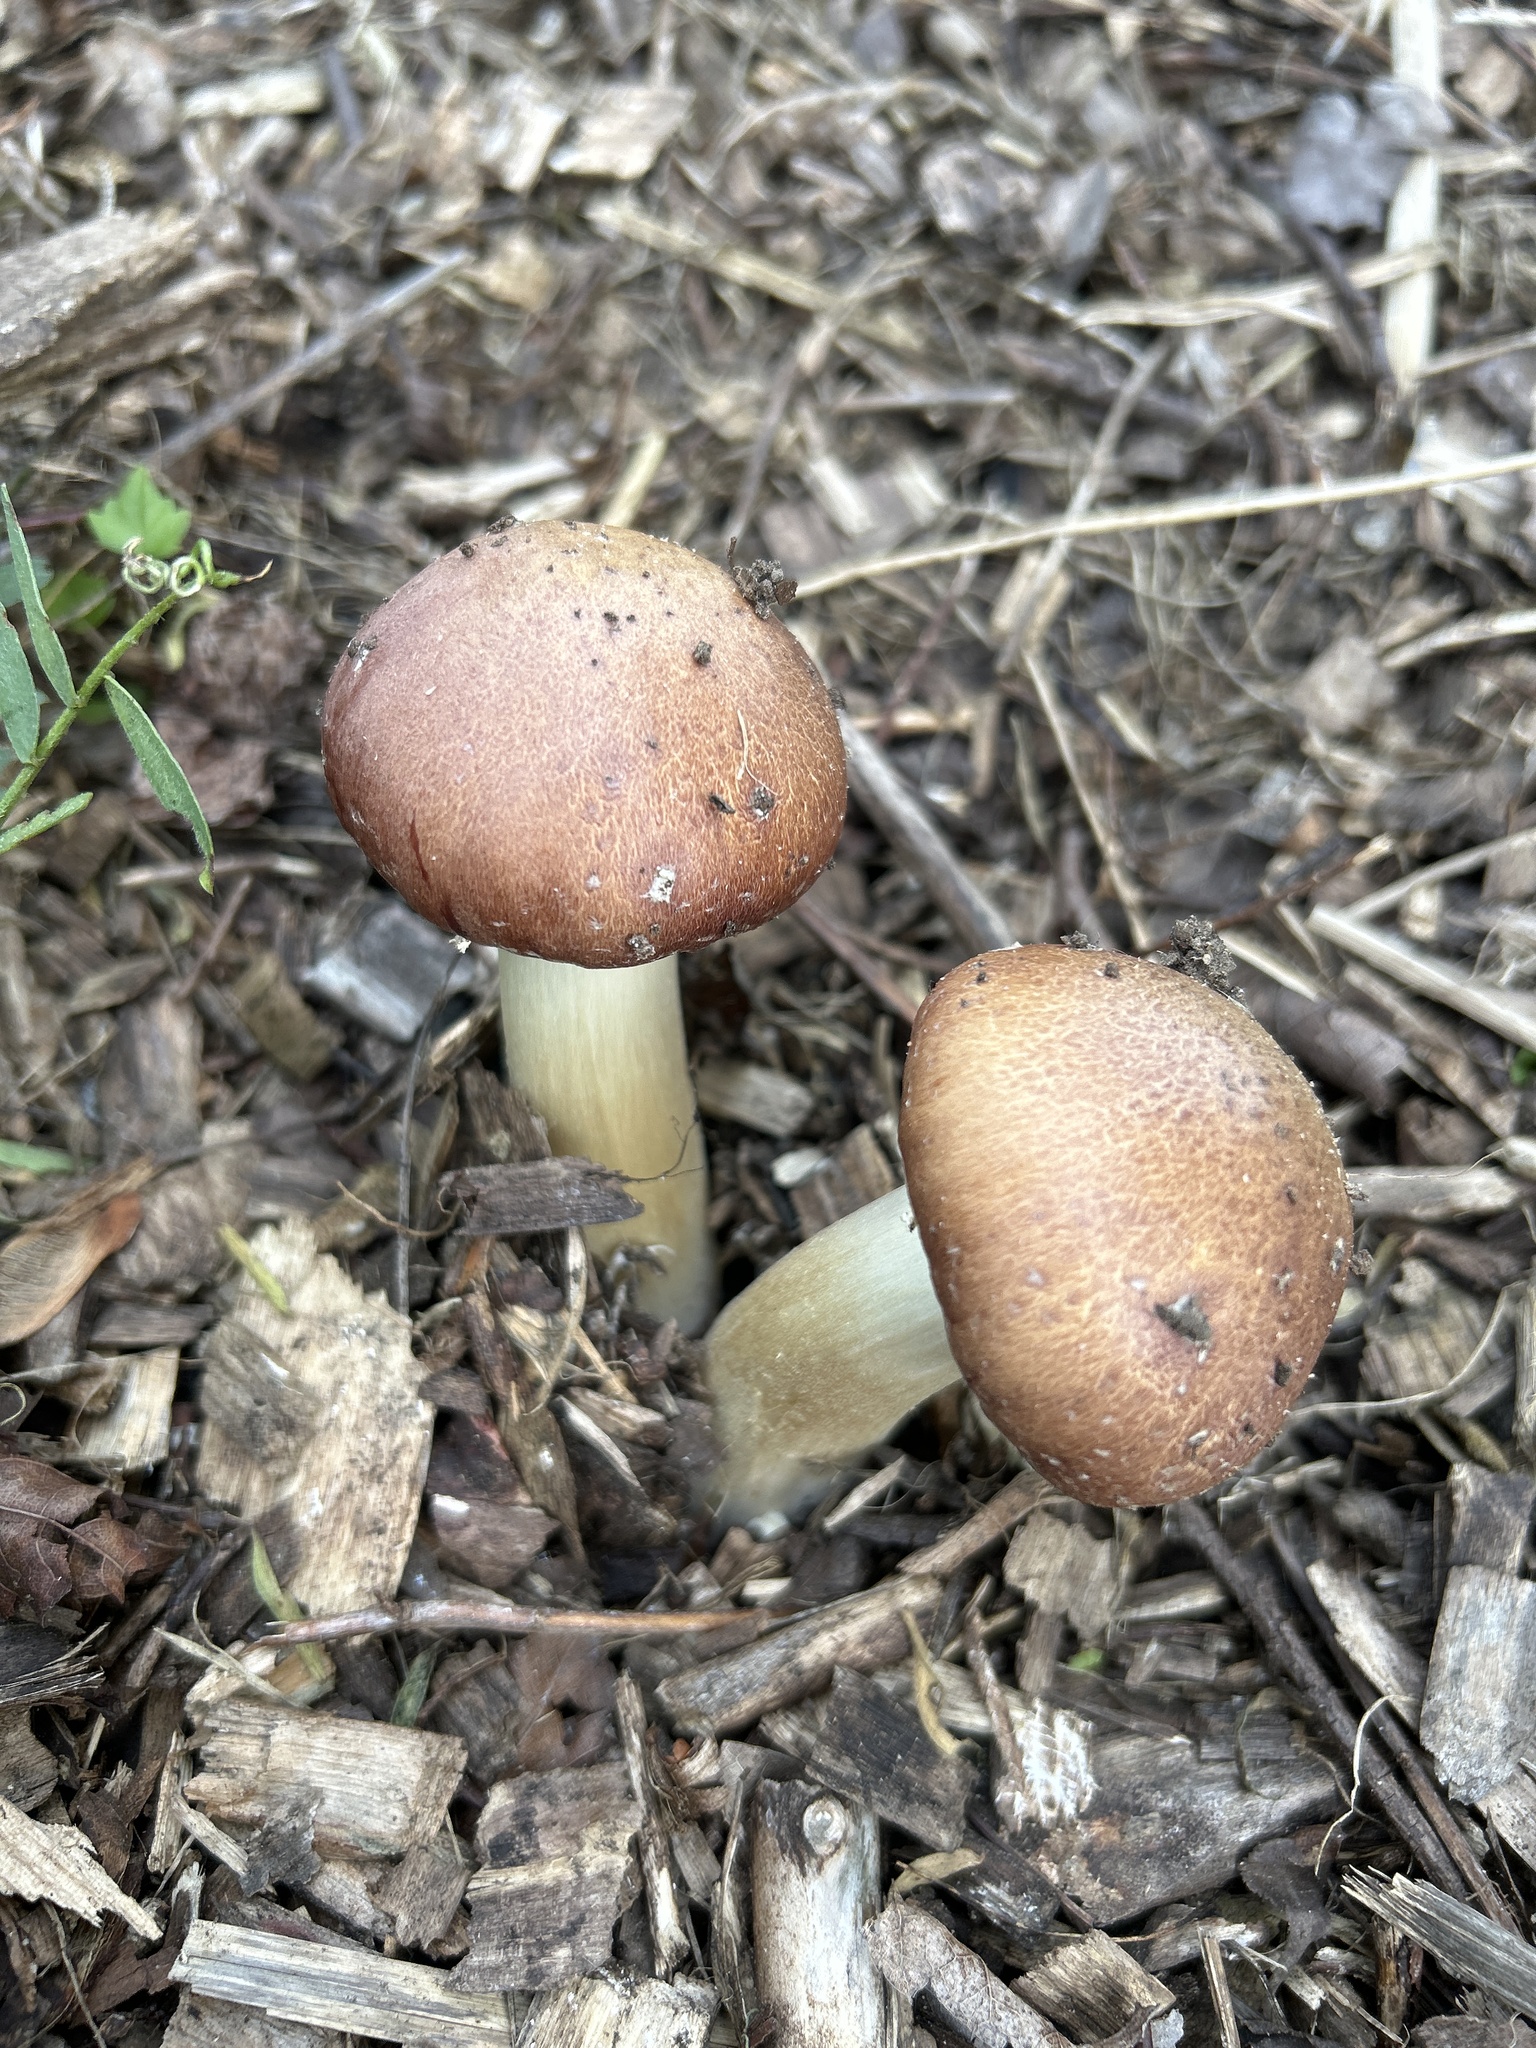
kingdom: Fungi
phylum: Basidiomycota
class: Agaricomycetes
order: Agaricales
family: Strophariaceae
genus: Stropharia
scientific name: Stropharia rugosoannulata
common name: Wine roundhead
